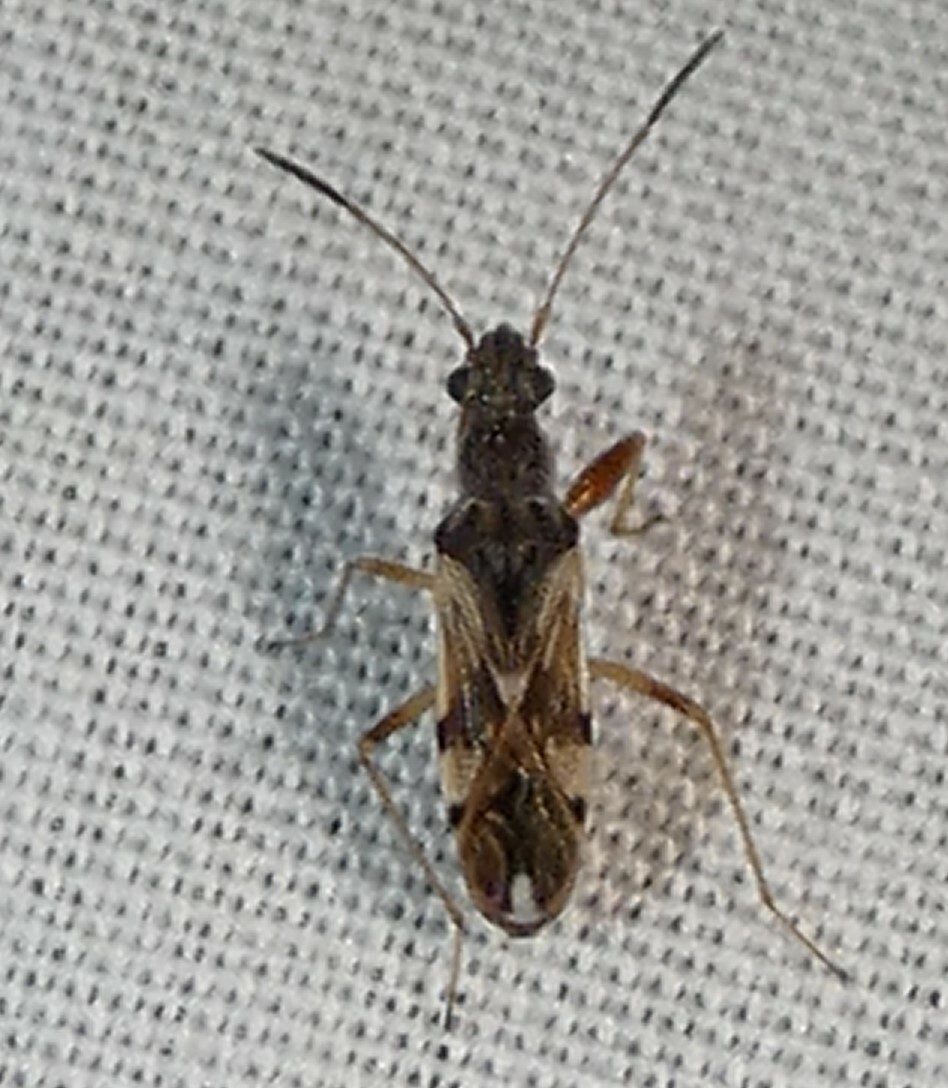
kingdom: Animalia
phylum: Arthropoda
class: Insecta
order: Hemiptera
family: Rhyparochromidae
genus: Neopamera
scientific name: Neopamera bilobata
